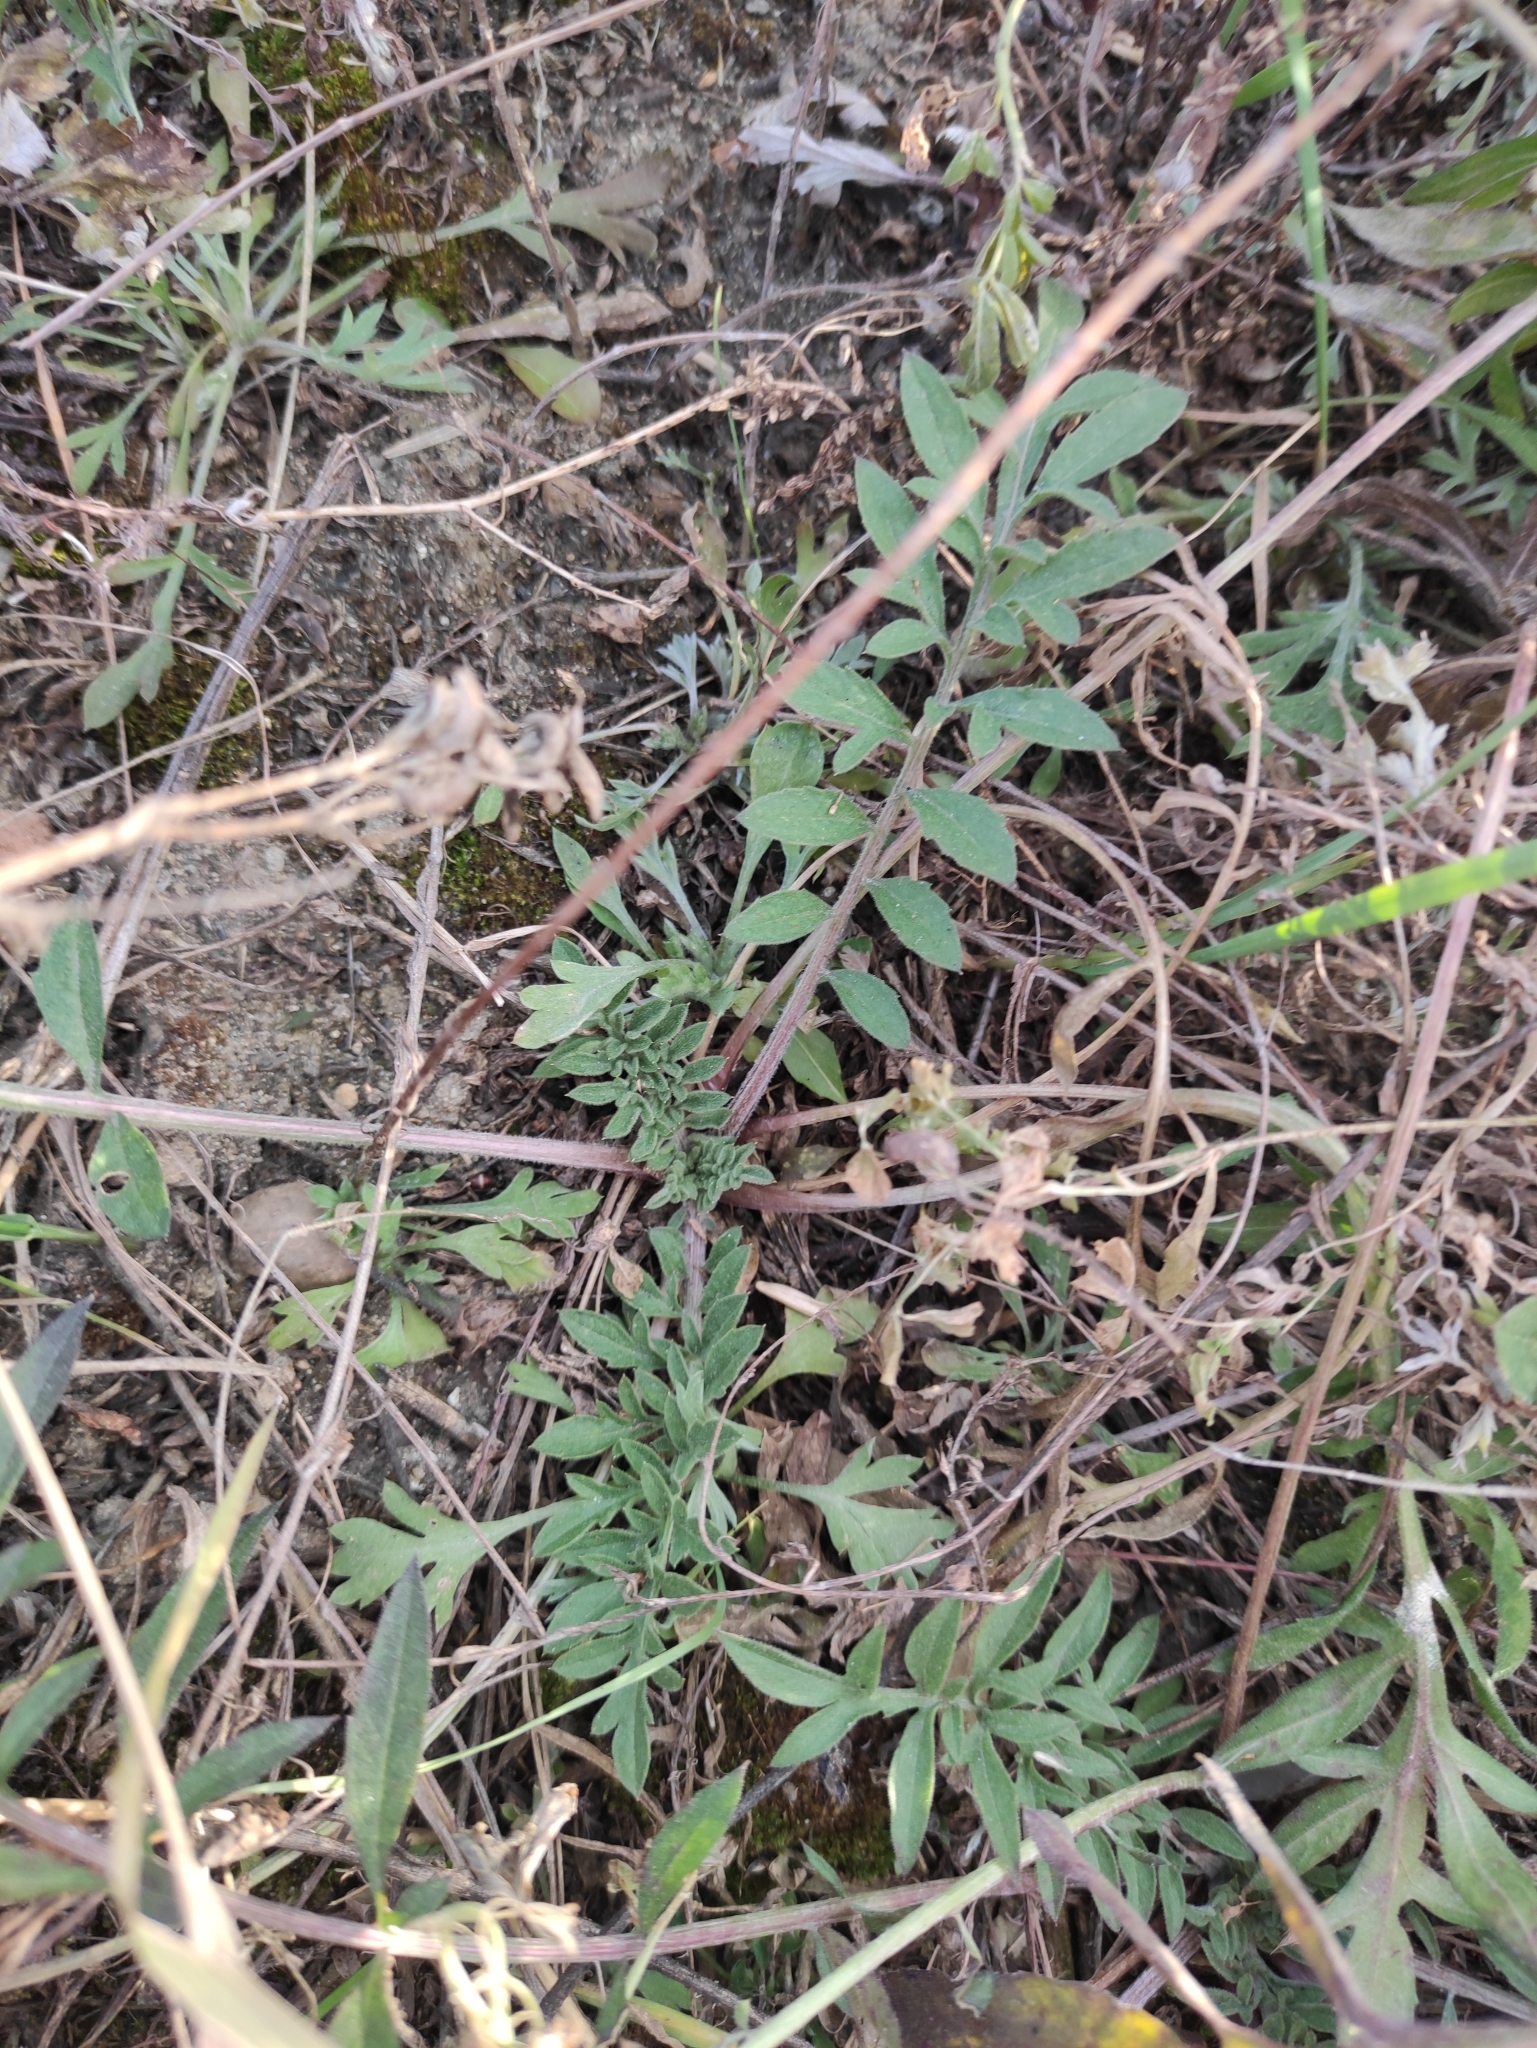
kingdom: Plantae
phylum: Tracheophyta
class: Magnoliopsida
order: Asterales
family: Asteraceae
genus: Centaurea
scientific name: Centaurea stoebe
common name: Spotted knapweed
